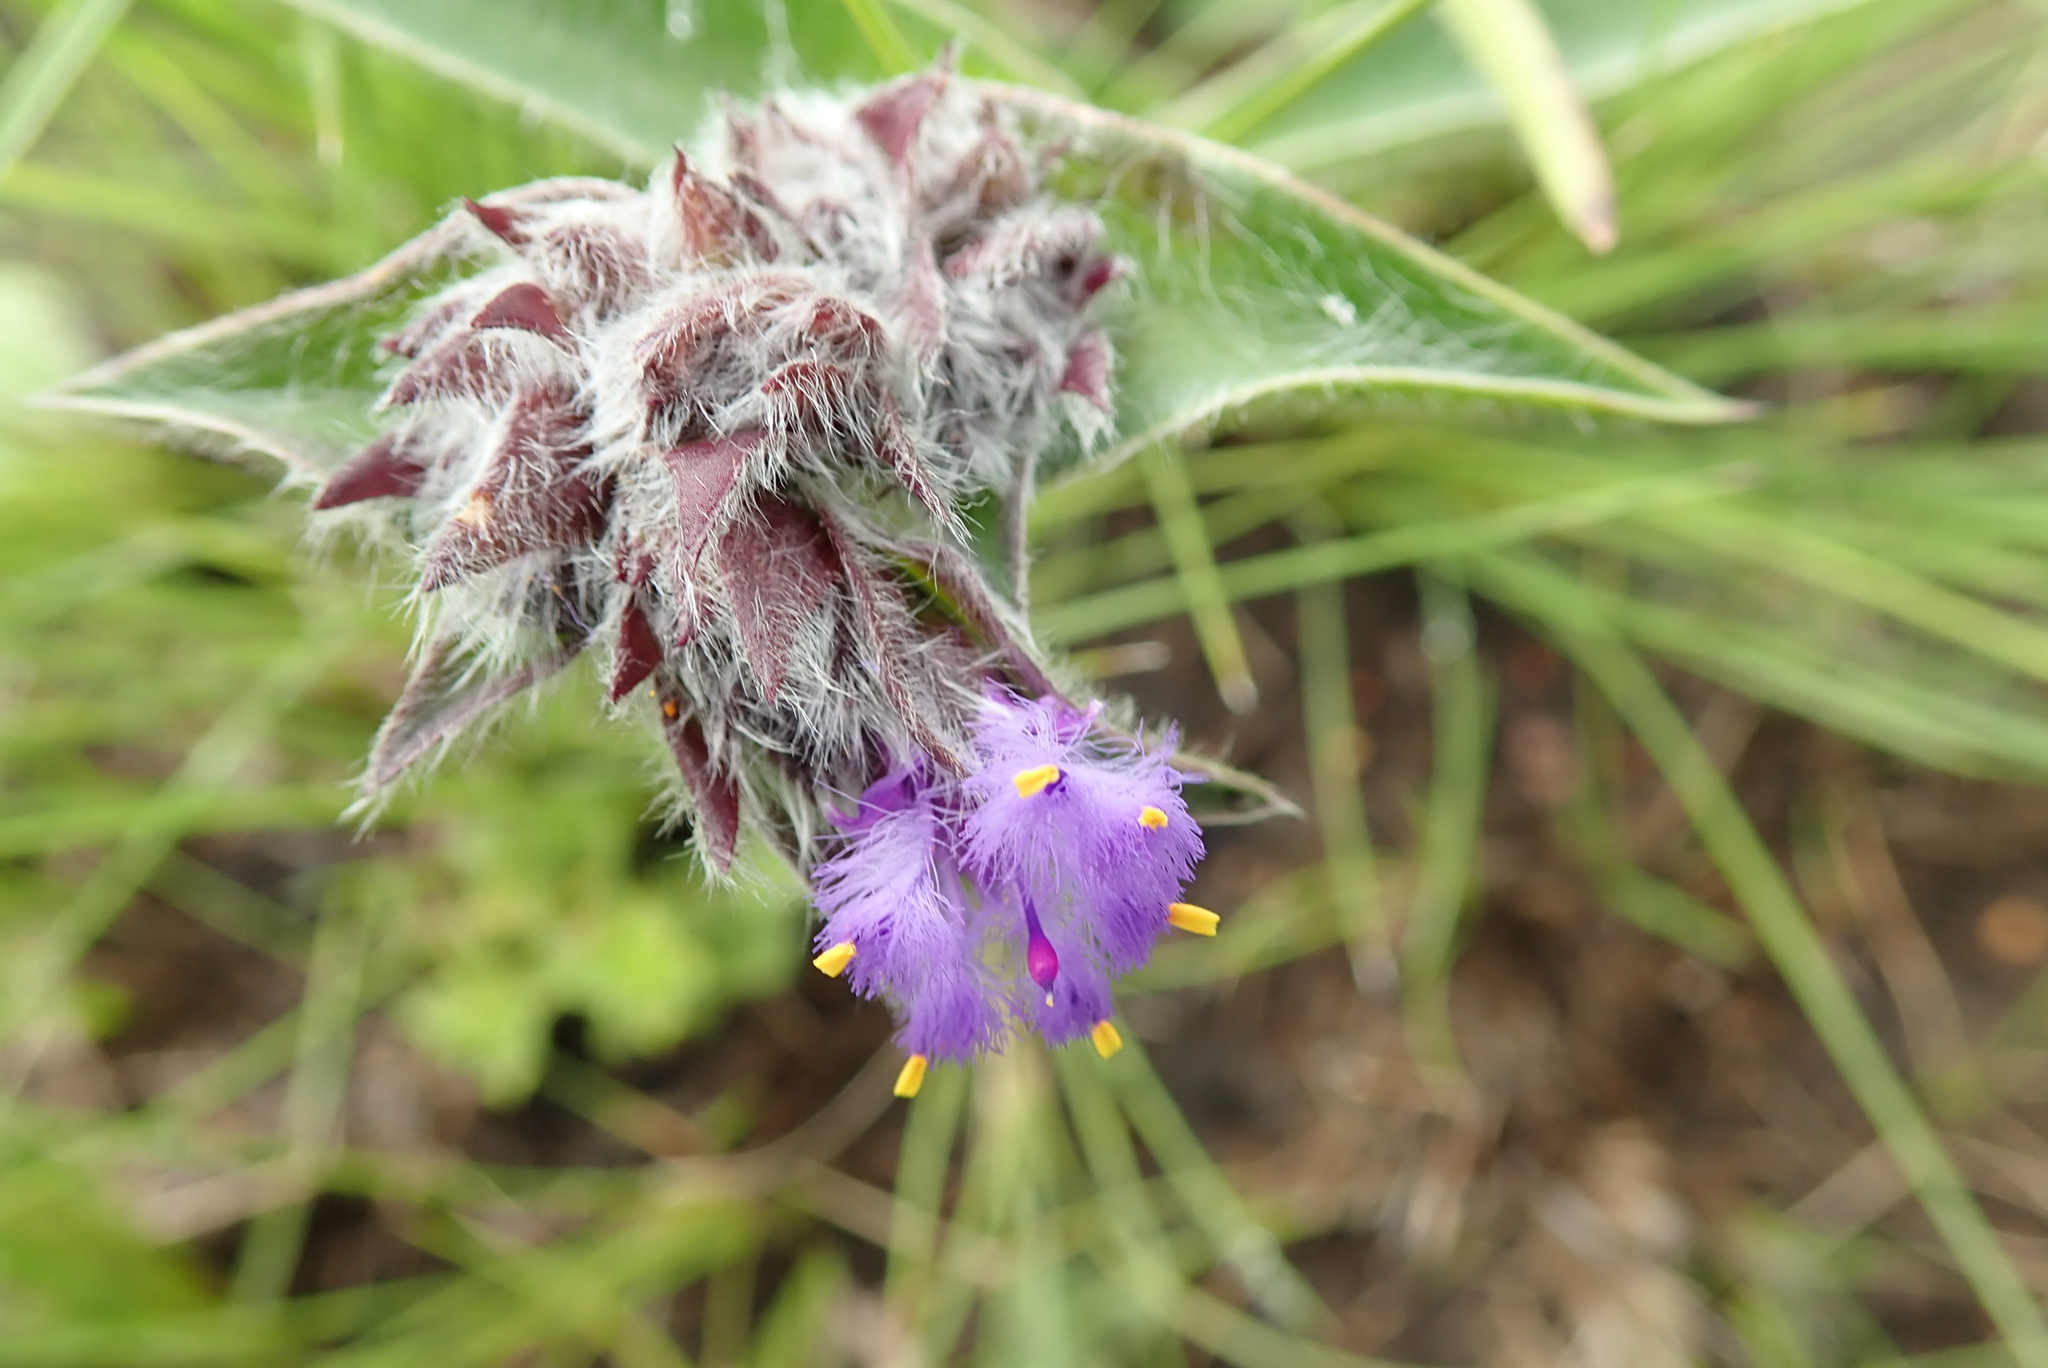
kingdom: Plantae
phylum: Tracheophyta
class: Liliopsida
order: Commelinales
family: Commelinaceae
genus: Cyanotis
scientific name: Cyanotis speciosa
